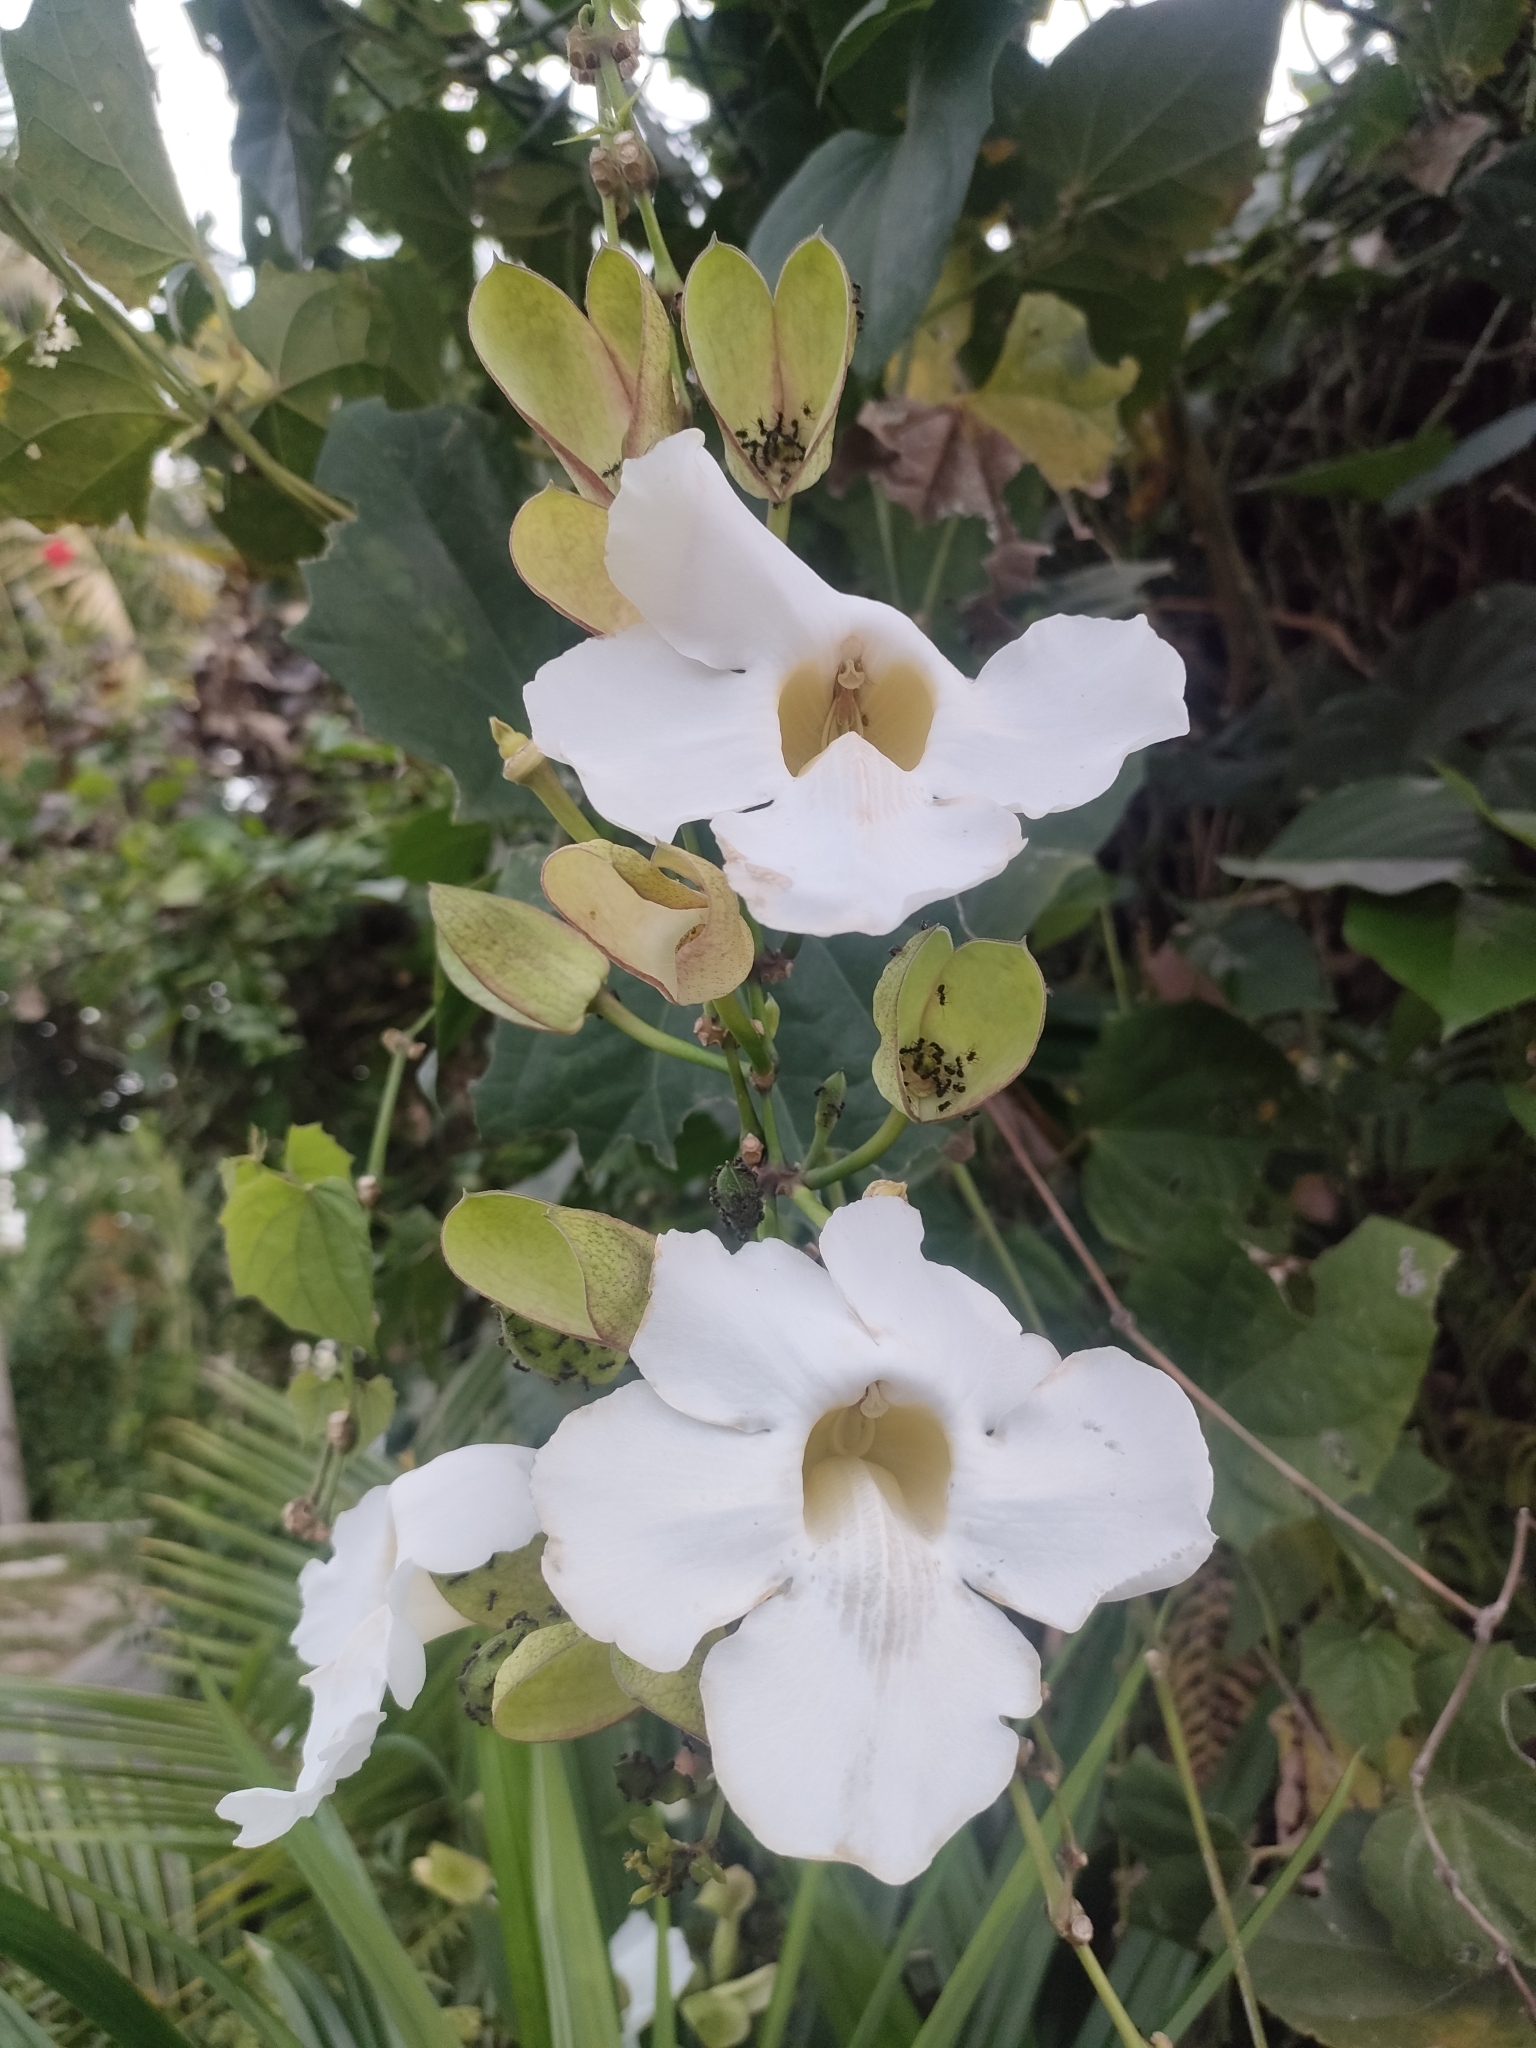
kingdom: Plantae
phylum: Tracheophyta
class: Magnoliopsida
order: Lamiales
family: Acanthaceae
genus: Thunbergia
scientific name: Thunbergia grandiflora
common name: Bengal trumpet
